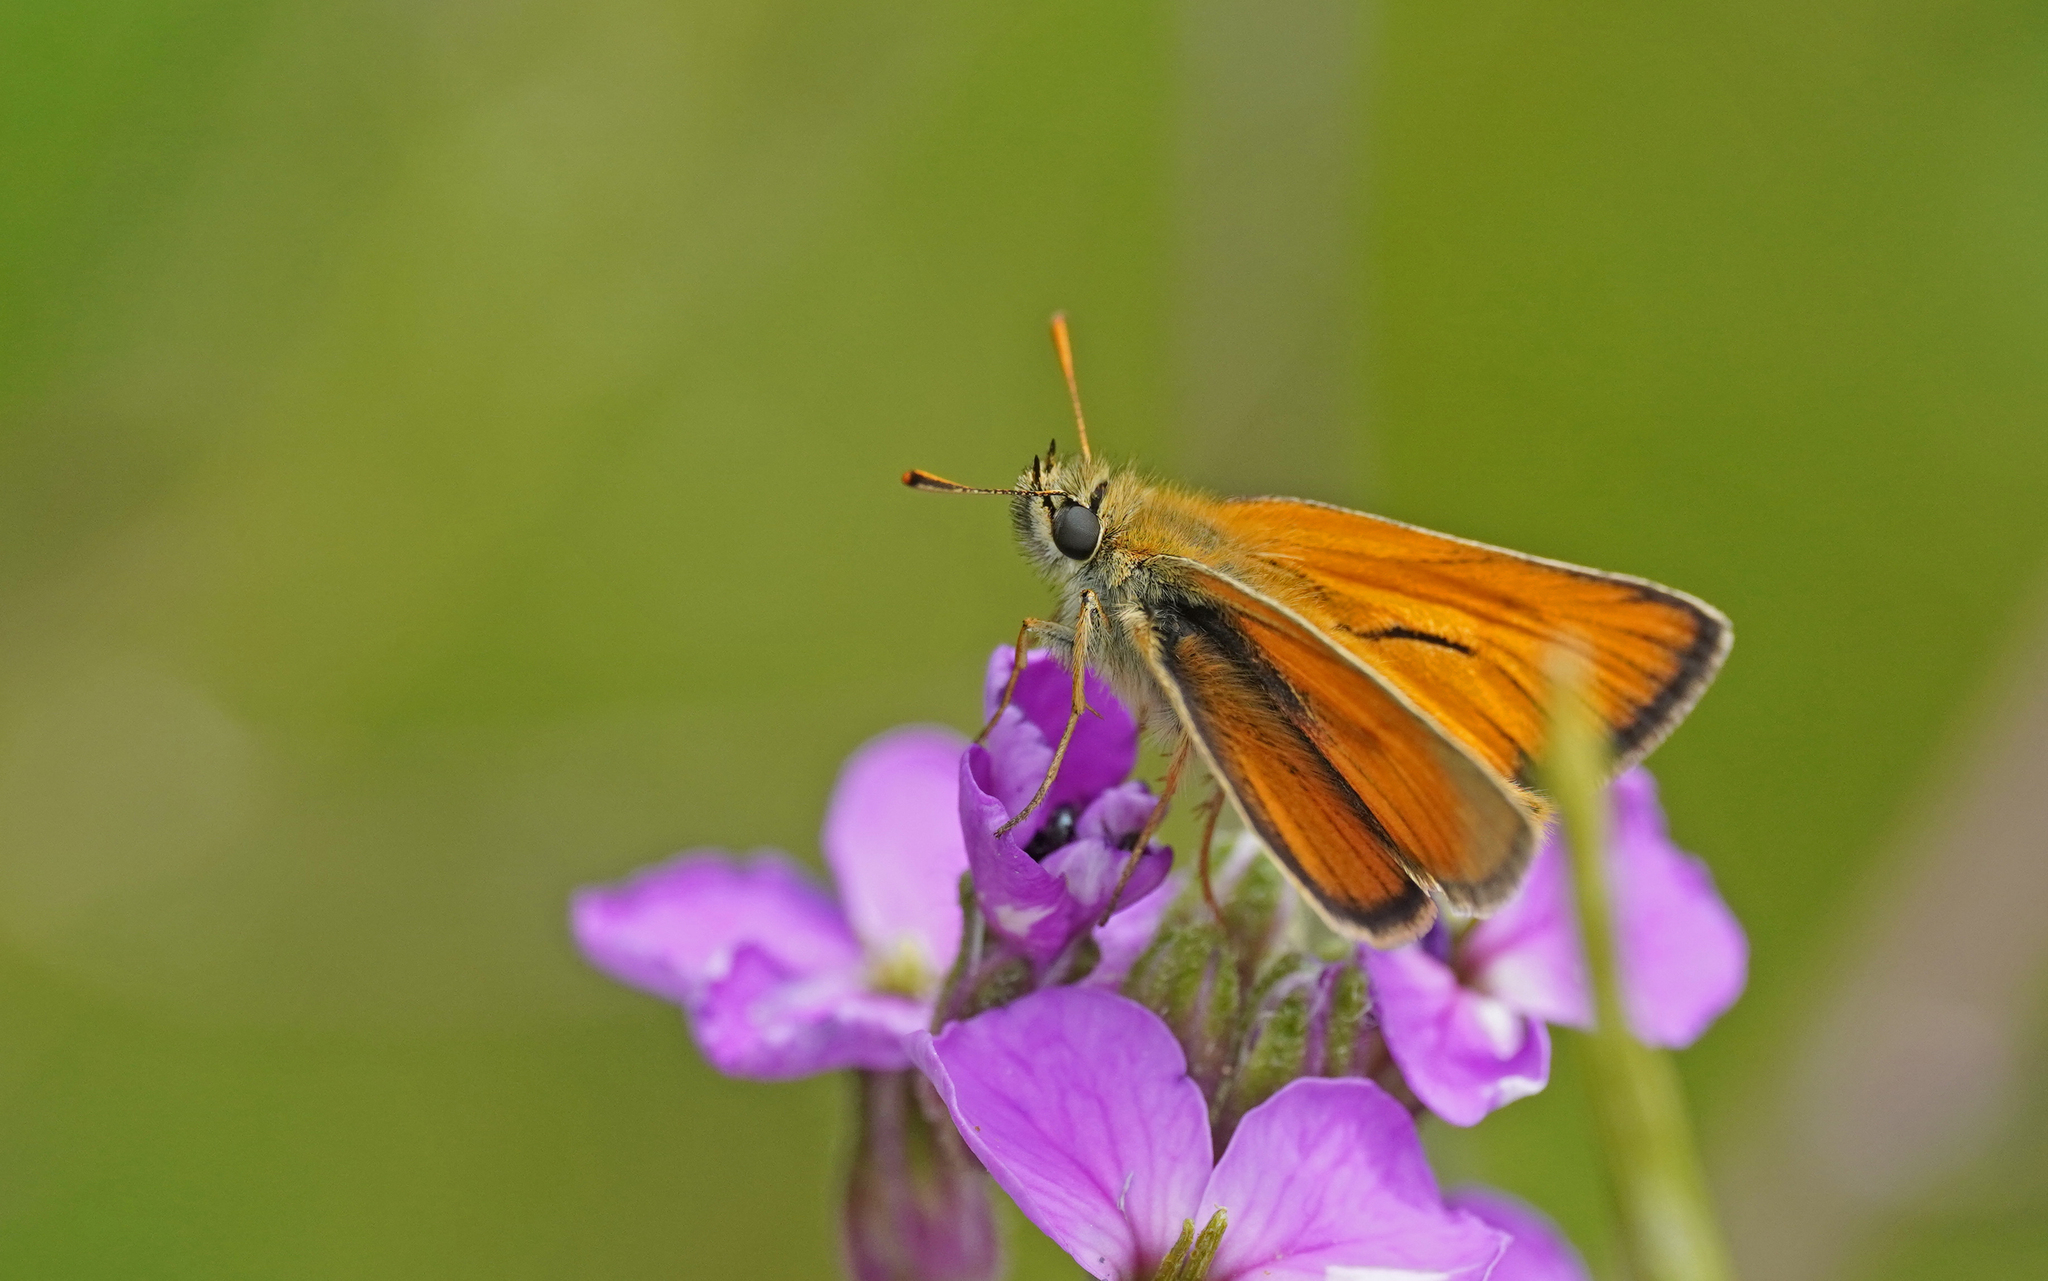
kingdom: Animalia
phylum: Arthropoda
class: Insecta
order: Lepidoptera
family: Hesperiidae
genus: Thymelicus
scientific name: Thymelicus sylvestris
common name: Small skipper
